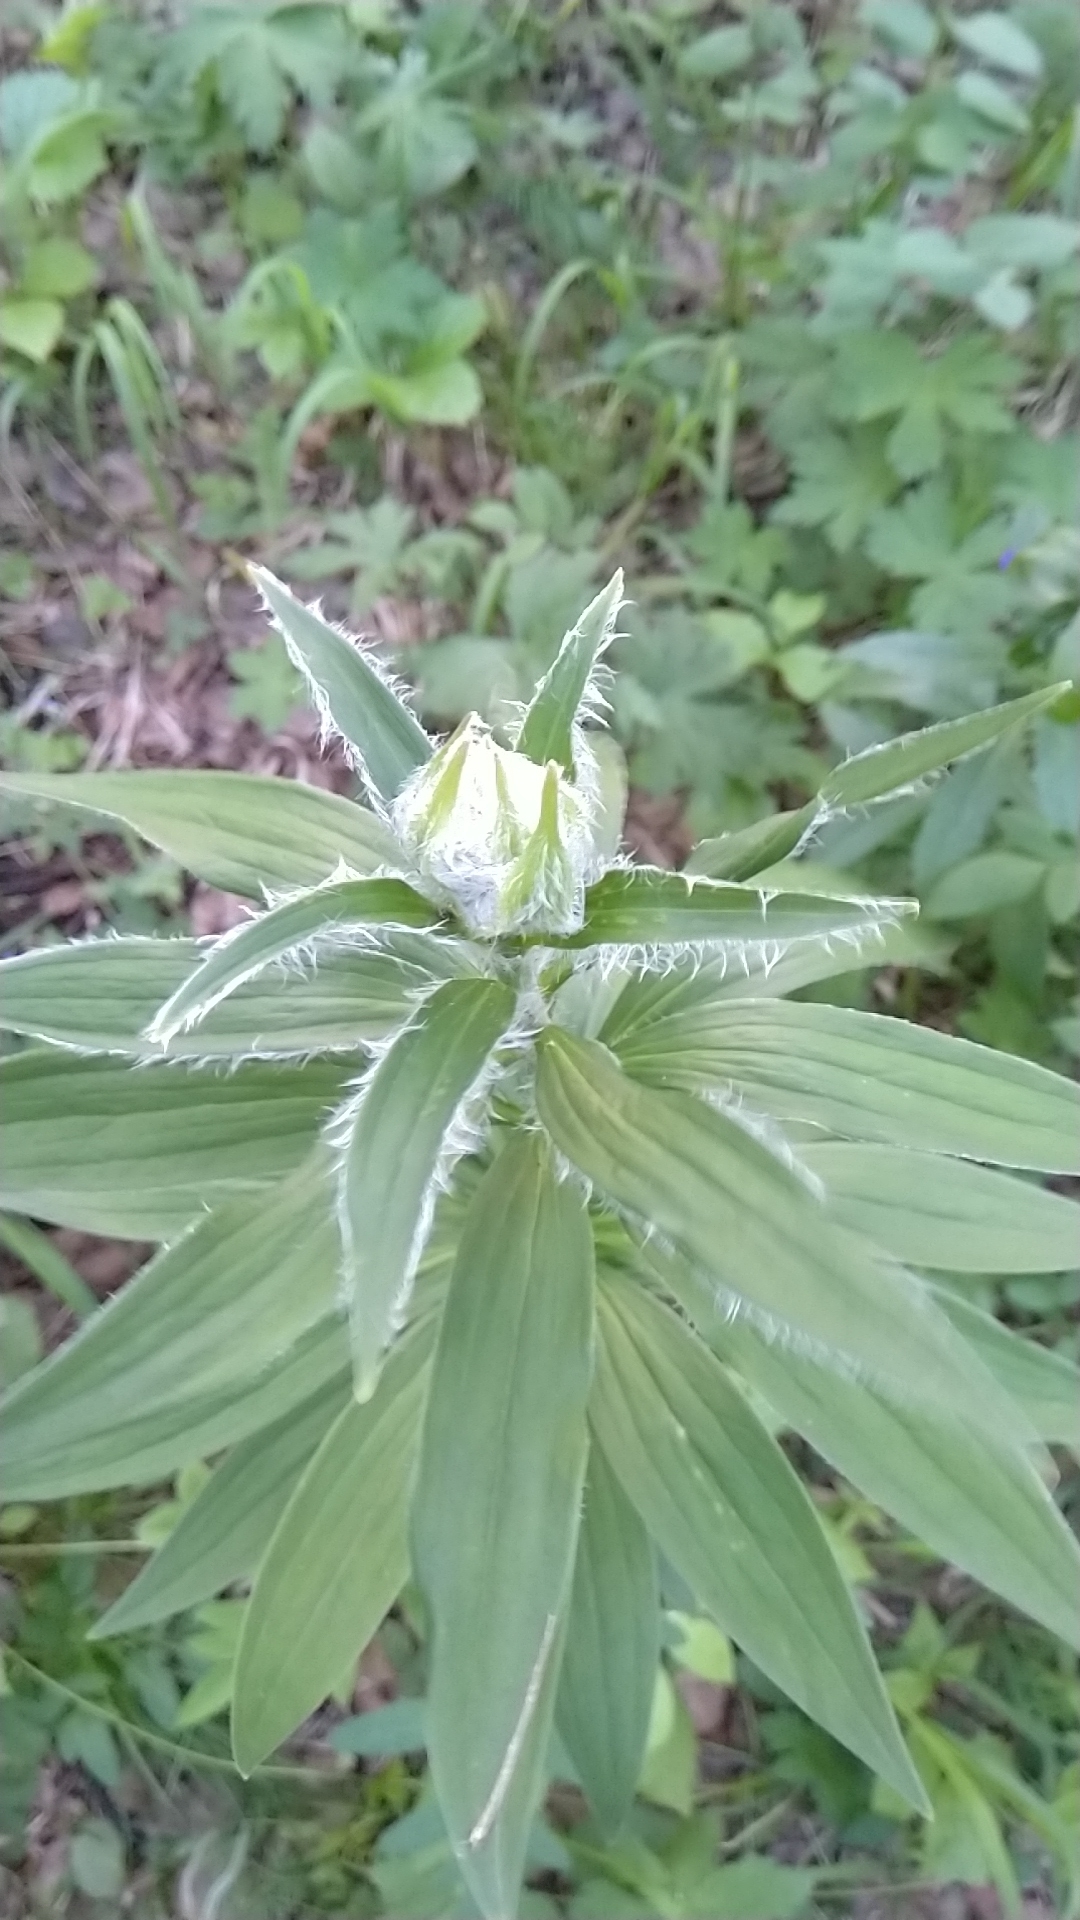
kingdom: Plantae
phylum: Tracheophyta
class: Liliopsida
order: Liliales
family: Liliaceae
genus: Lilium
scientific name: Lilium martagon
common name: Martagon lily
